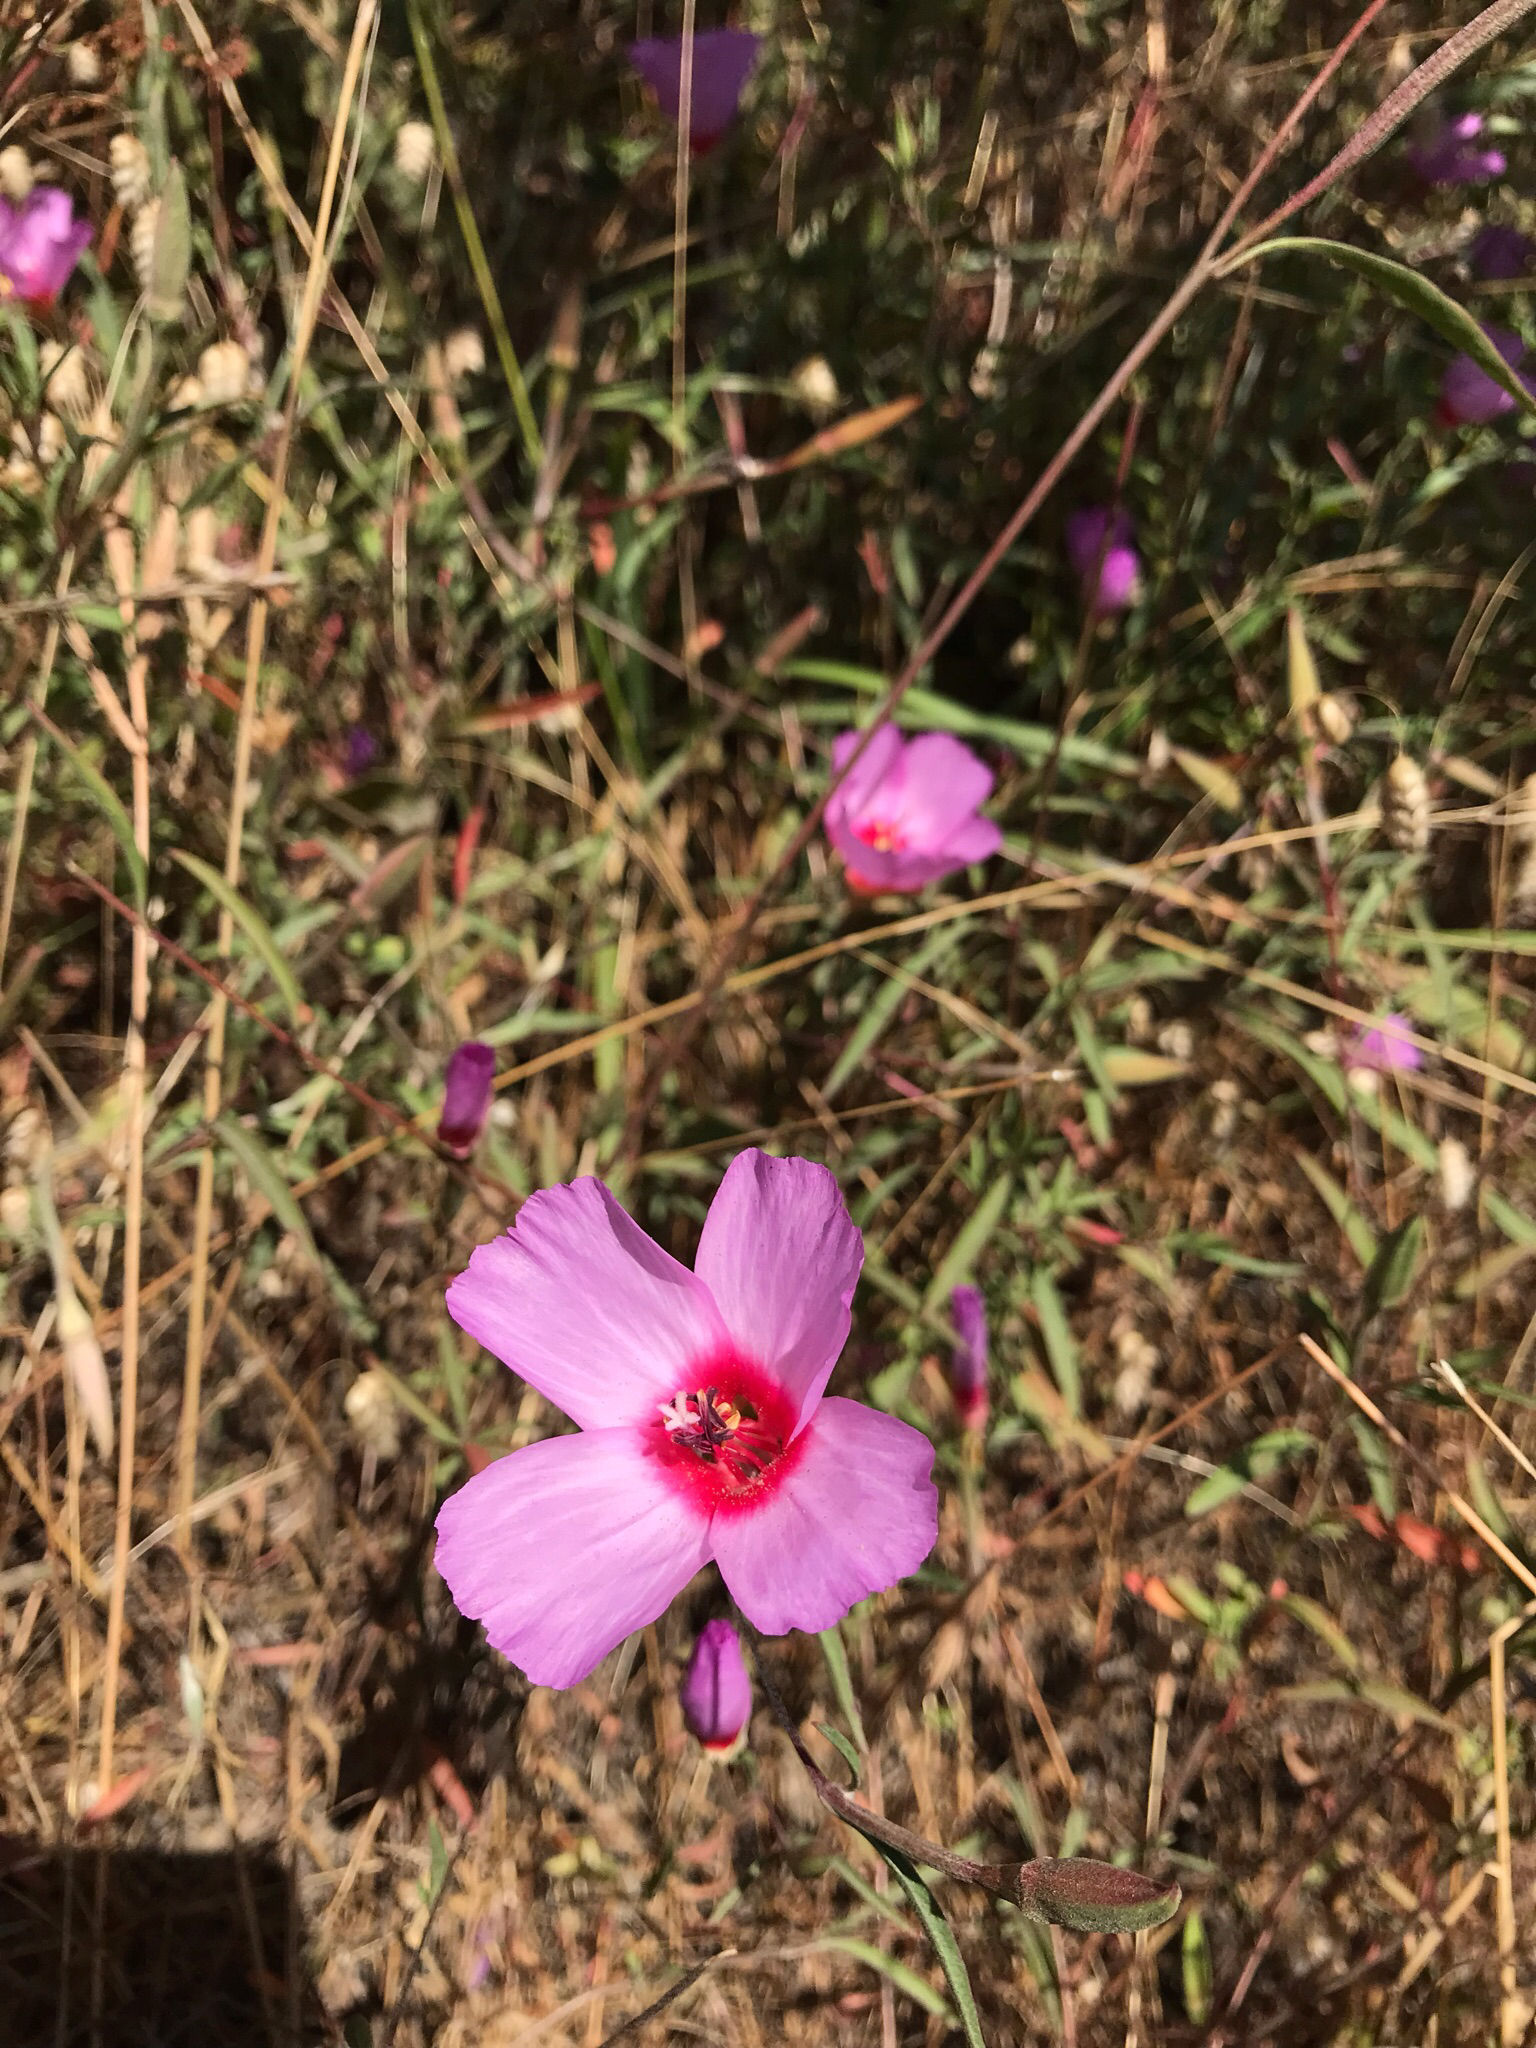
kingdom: Plantae
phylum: Tracheophyta
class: Magnoliopsida
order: Myrtales
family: Onagraceae
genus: Clarkia
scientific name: Clarkia rubicunda
